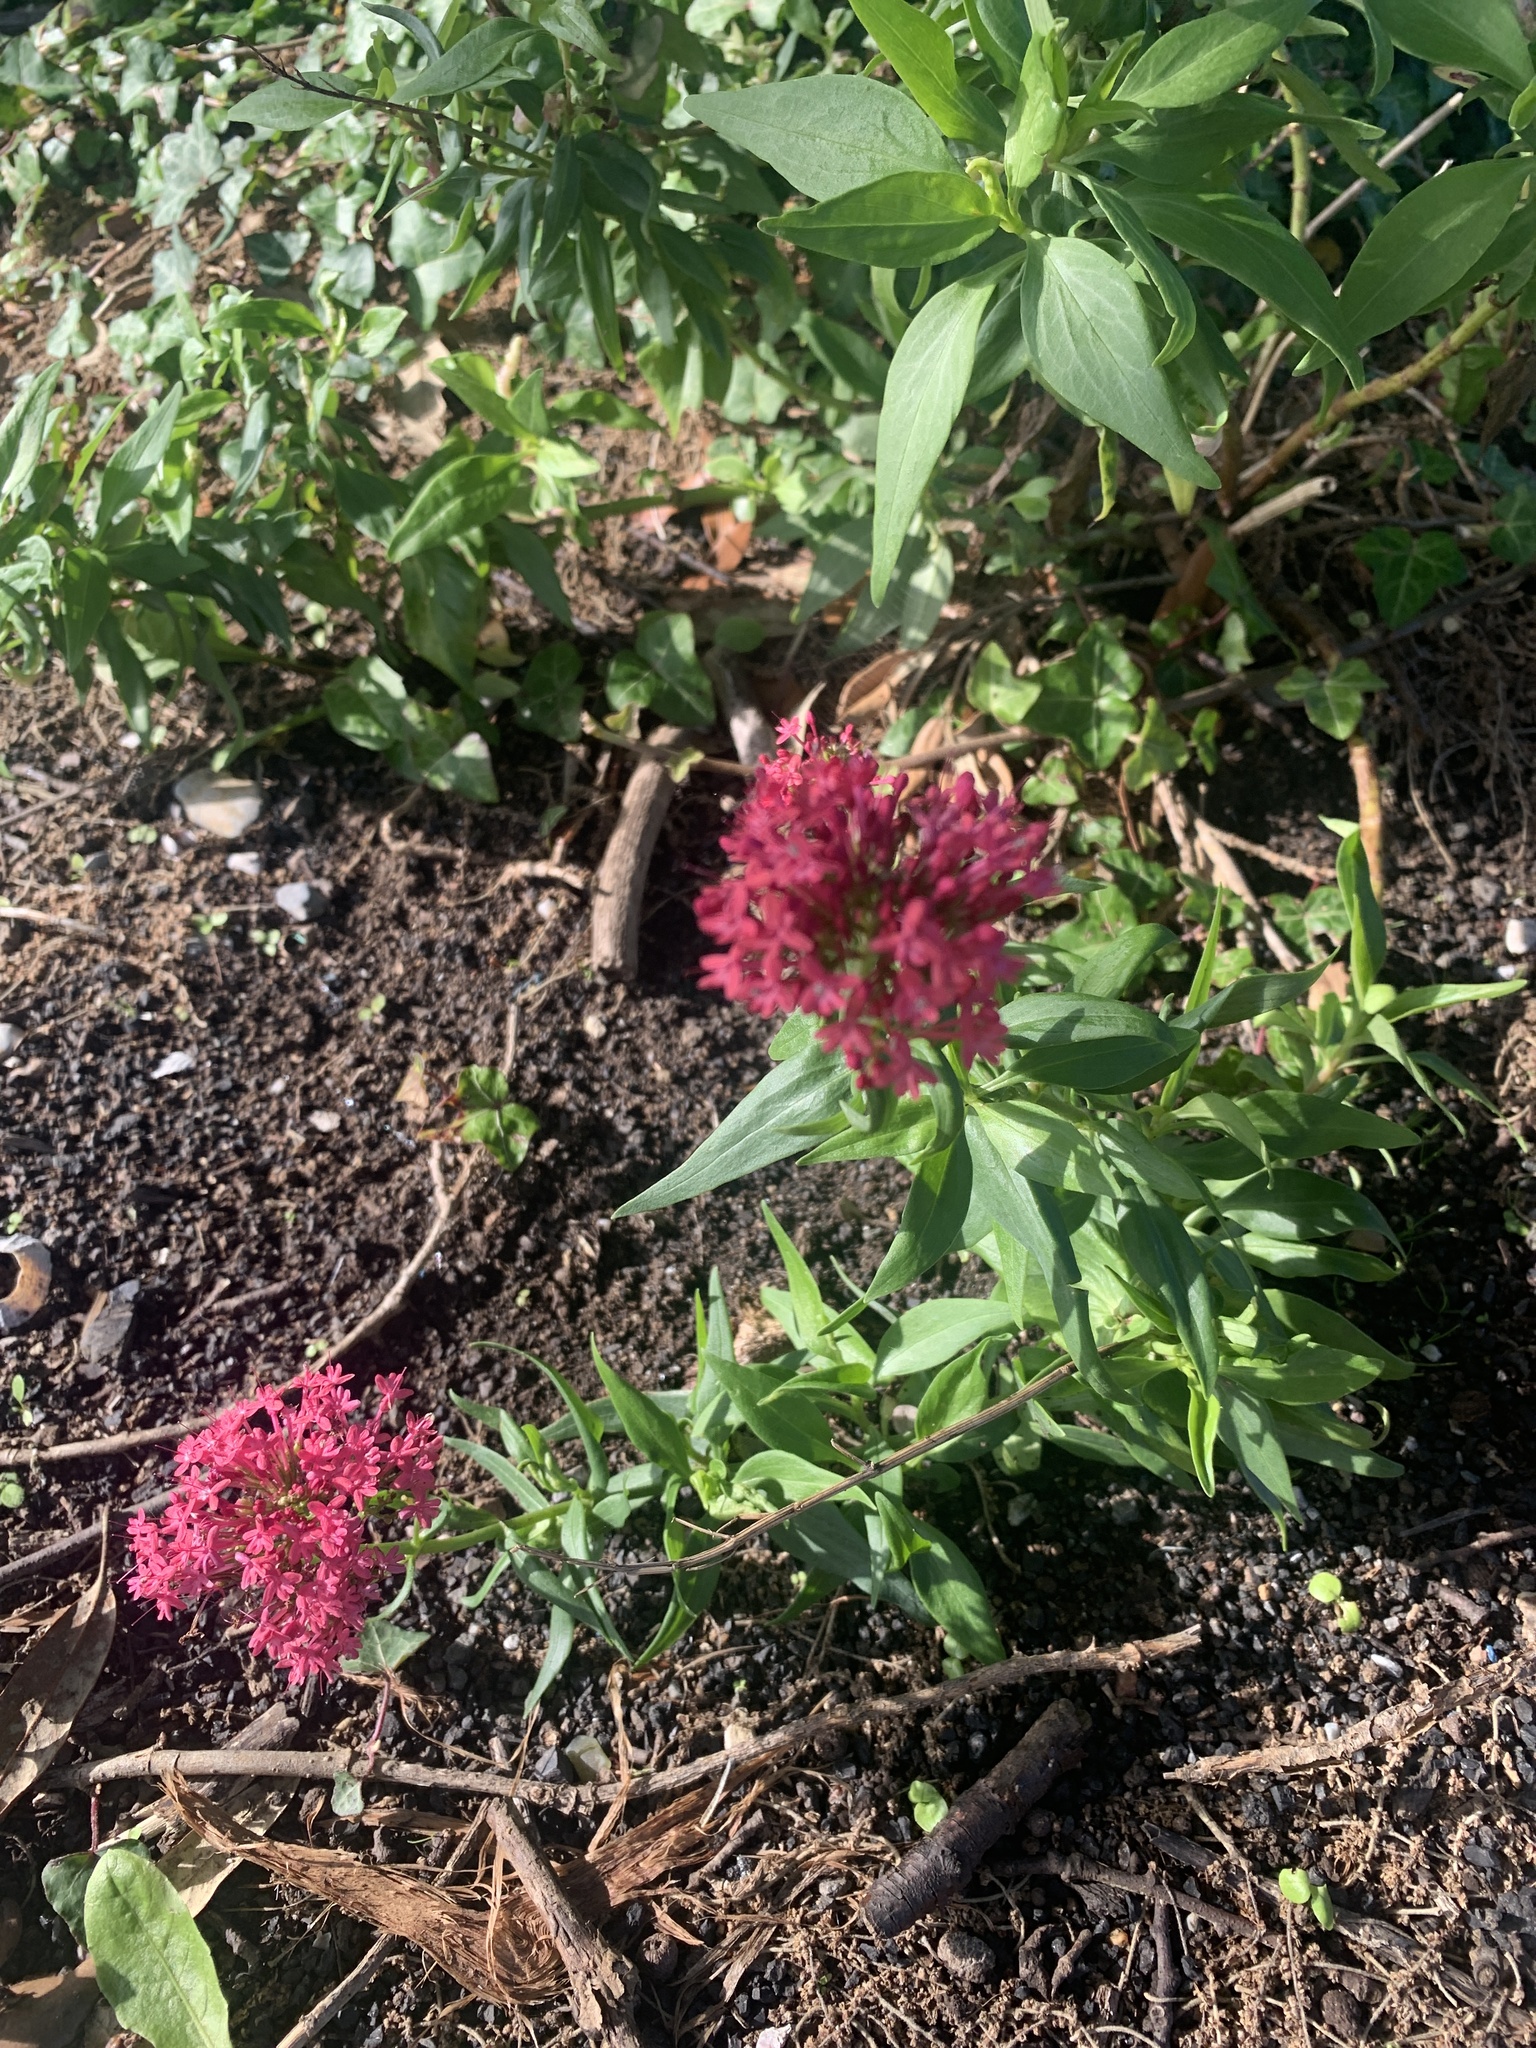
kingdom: Plantae
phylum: Tracheophyta
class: Magnoliopsida
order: Dipsacales
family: Caprifoliaceae
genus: Centranthus
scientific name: Centranthus ruber
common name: Red valerian
